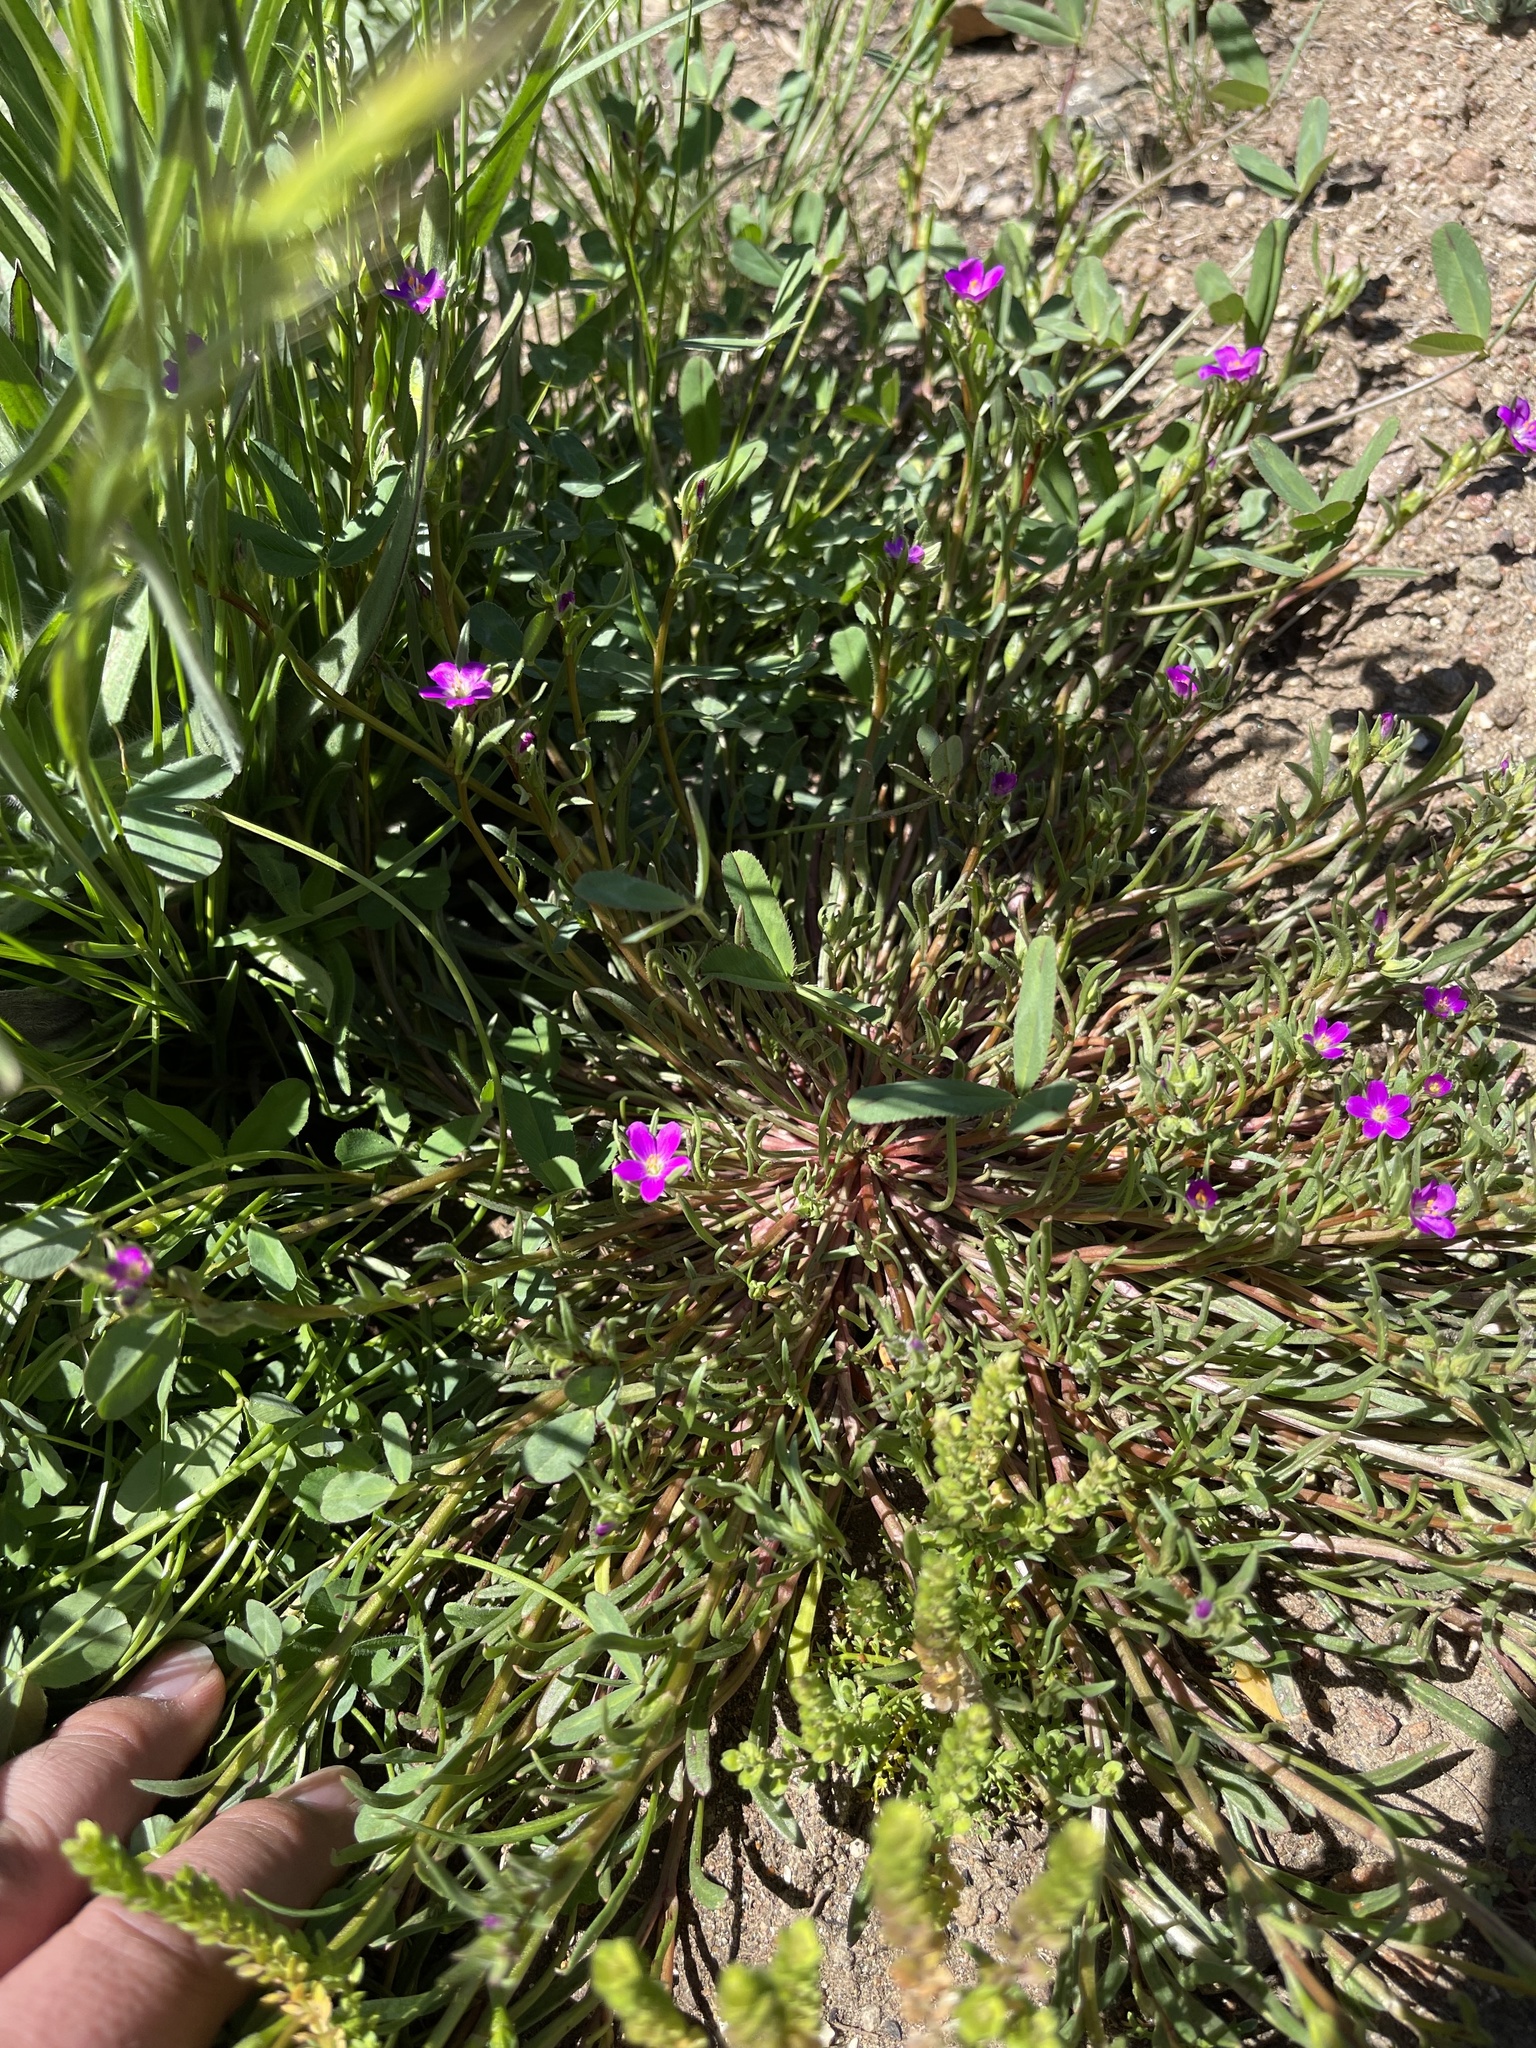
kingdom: Plantae
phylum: Tracheophyta
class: Magnoliopsida
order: Caryophyllales
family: Montiaceae
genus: Calandrinia
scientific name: Calandrinia menziesii
